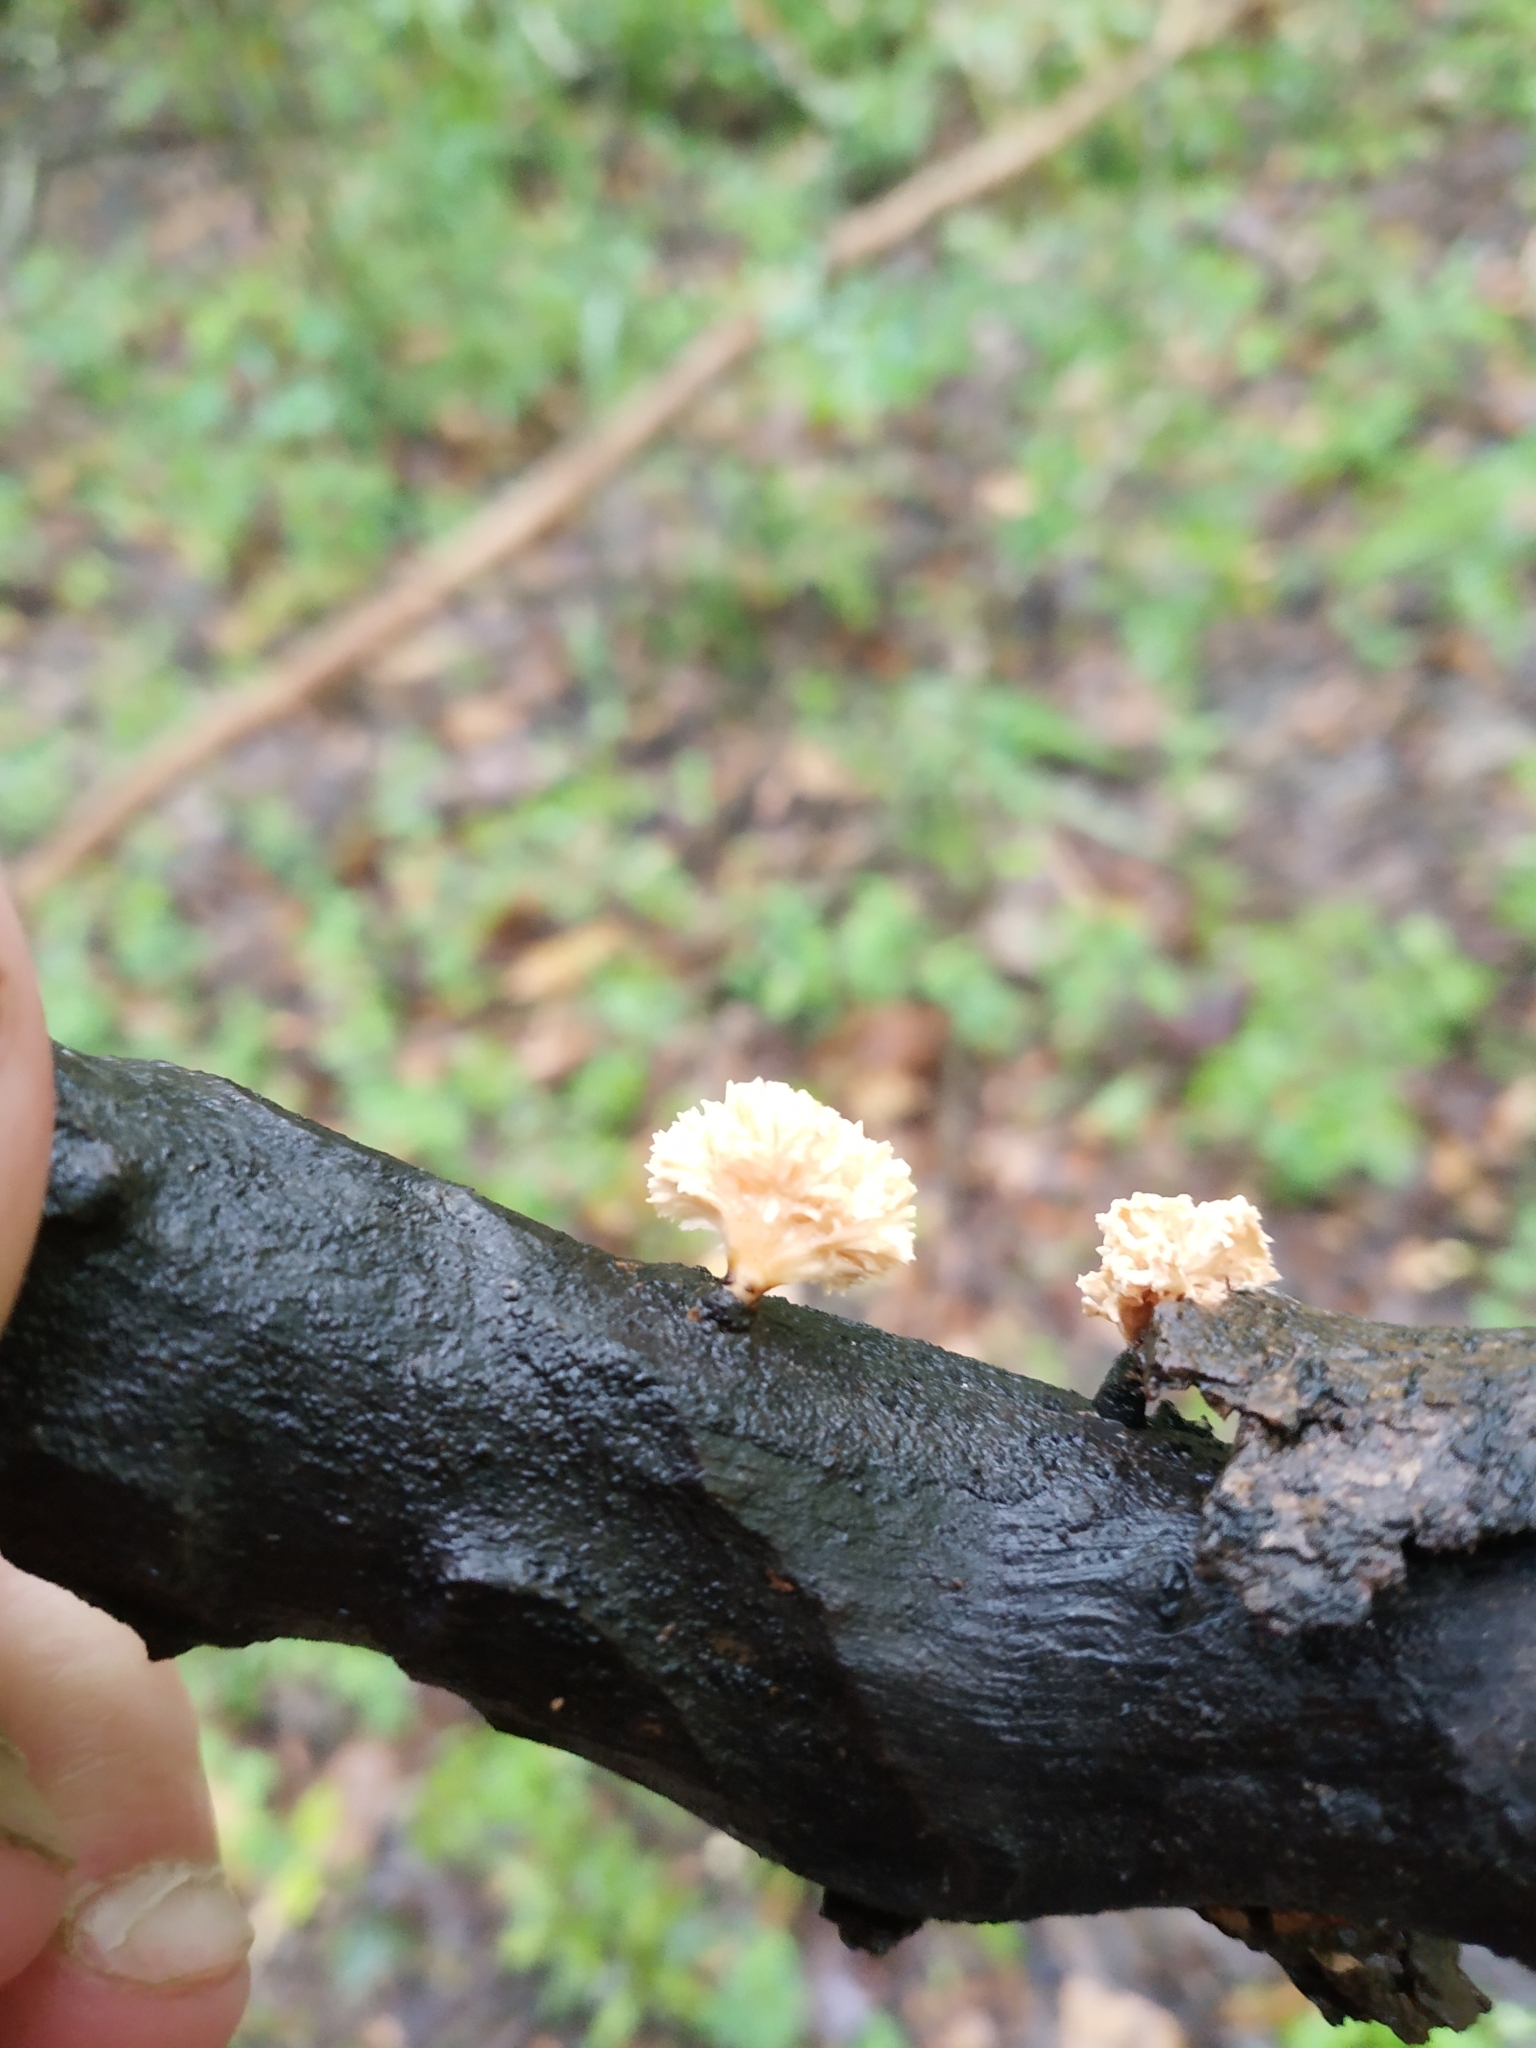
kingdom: Fungi
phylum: Ascomycota
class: Sordariomycetes
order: Xylariales
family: Xylariaceae
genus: Xylaria
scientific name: Xylaria cubensis
